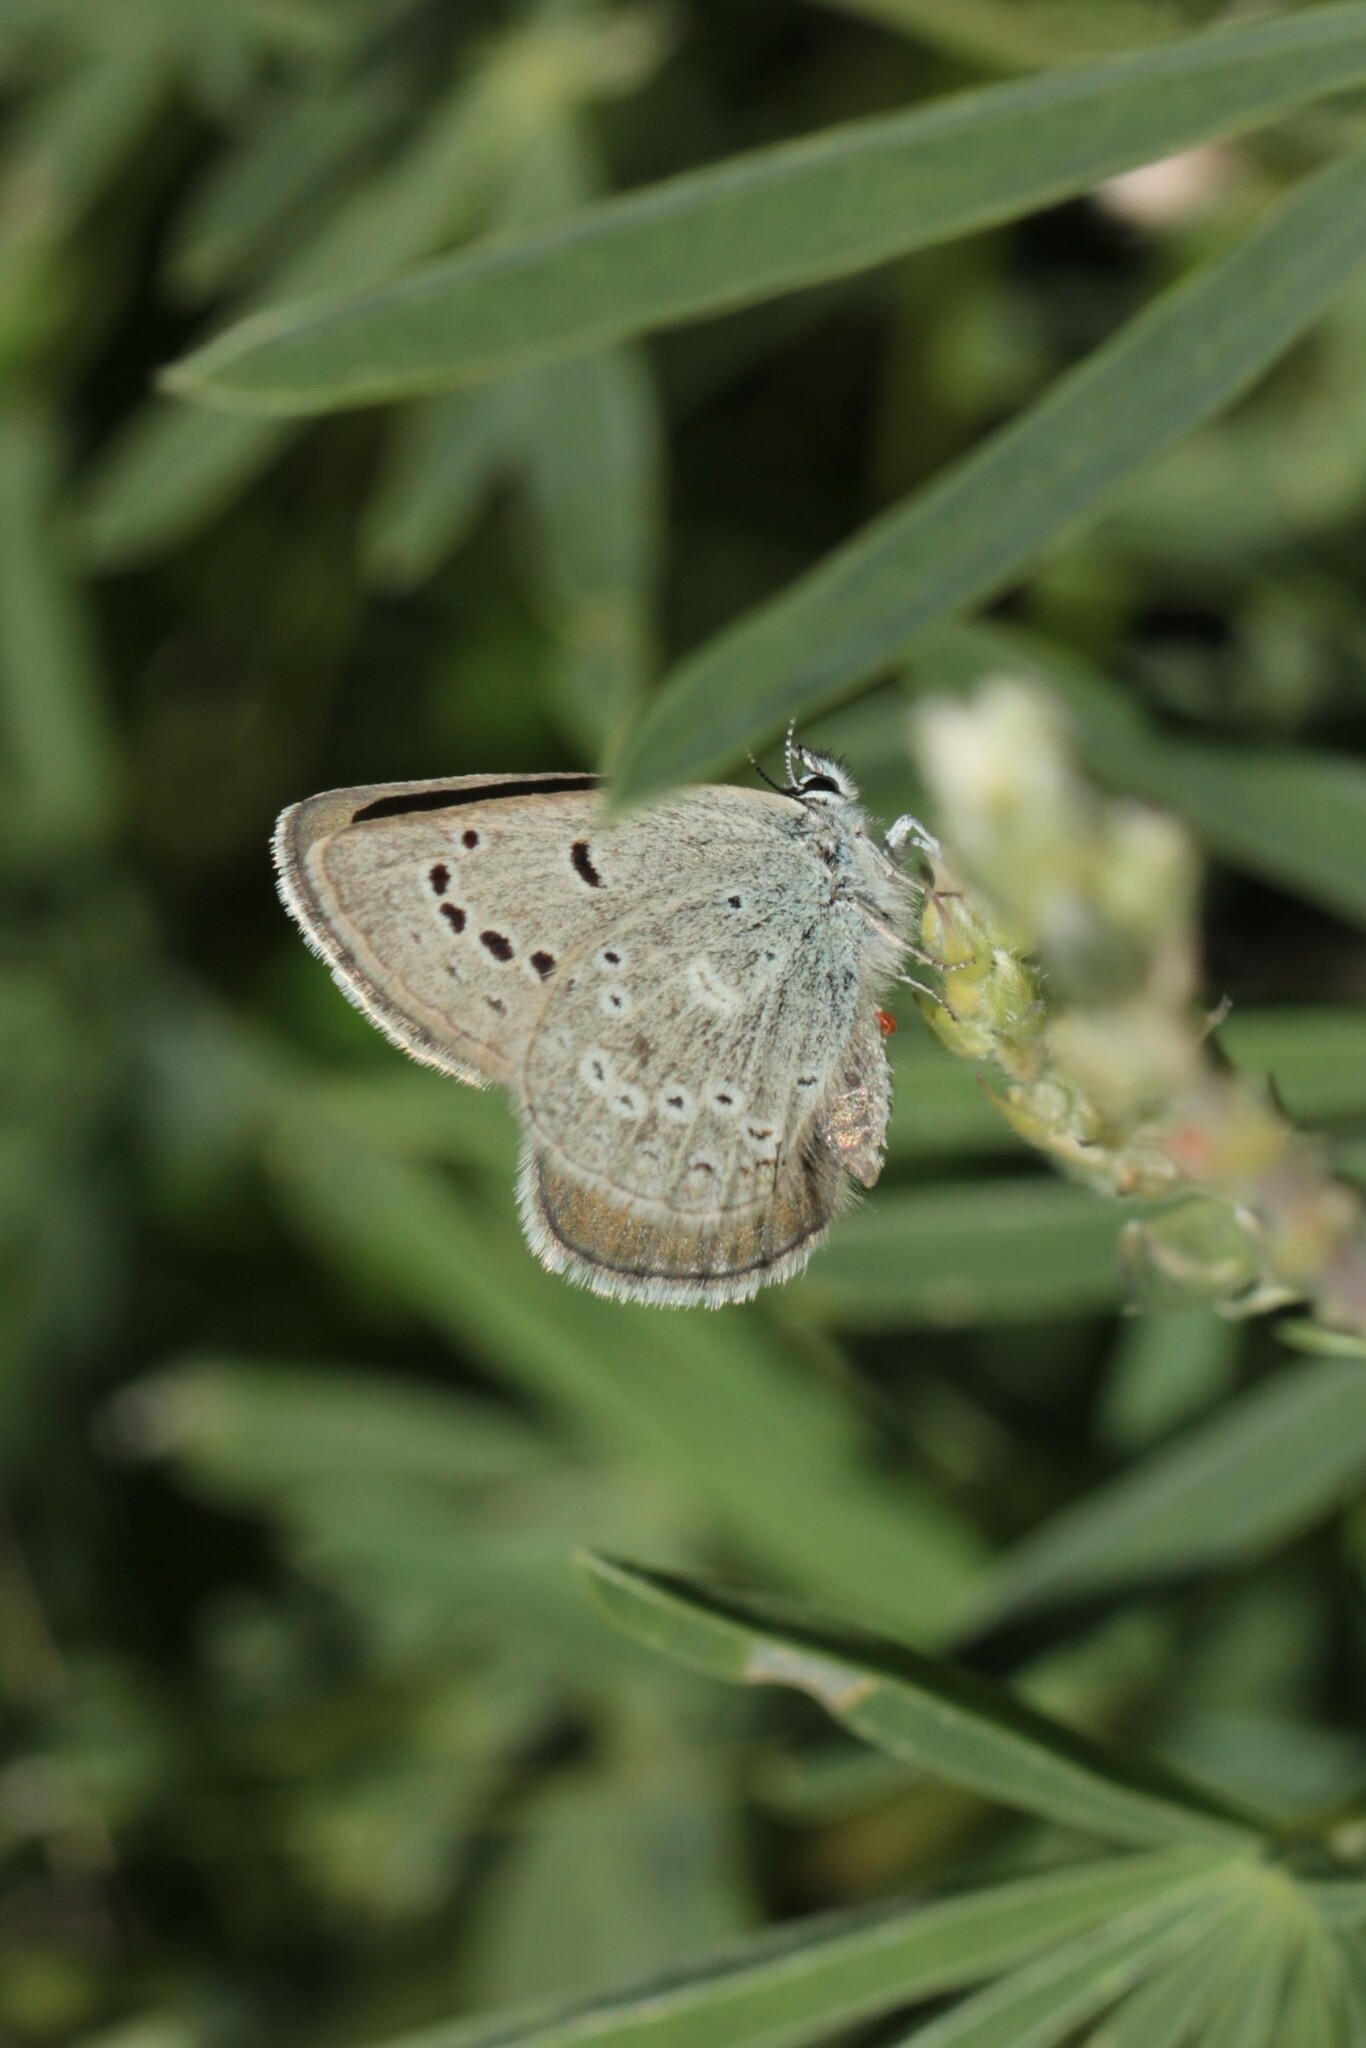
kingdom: Animalia
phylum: Arthropoda
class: Insecta
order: Lepidoptera
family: Lycaenidae
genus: Icaricia
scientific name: Icaricia icarioides
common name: Boisduval's blue
